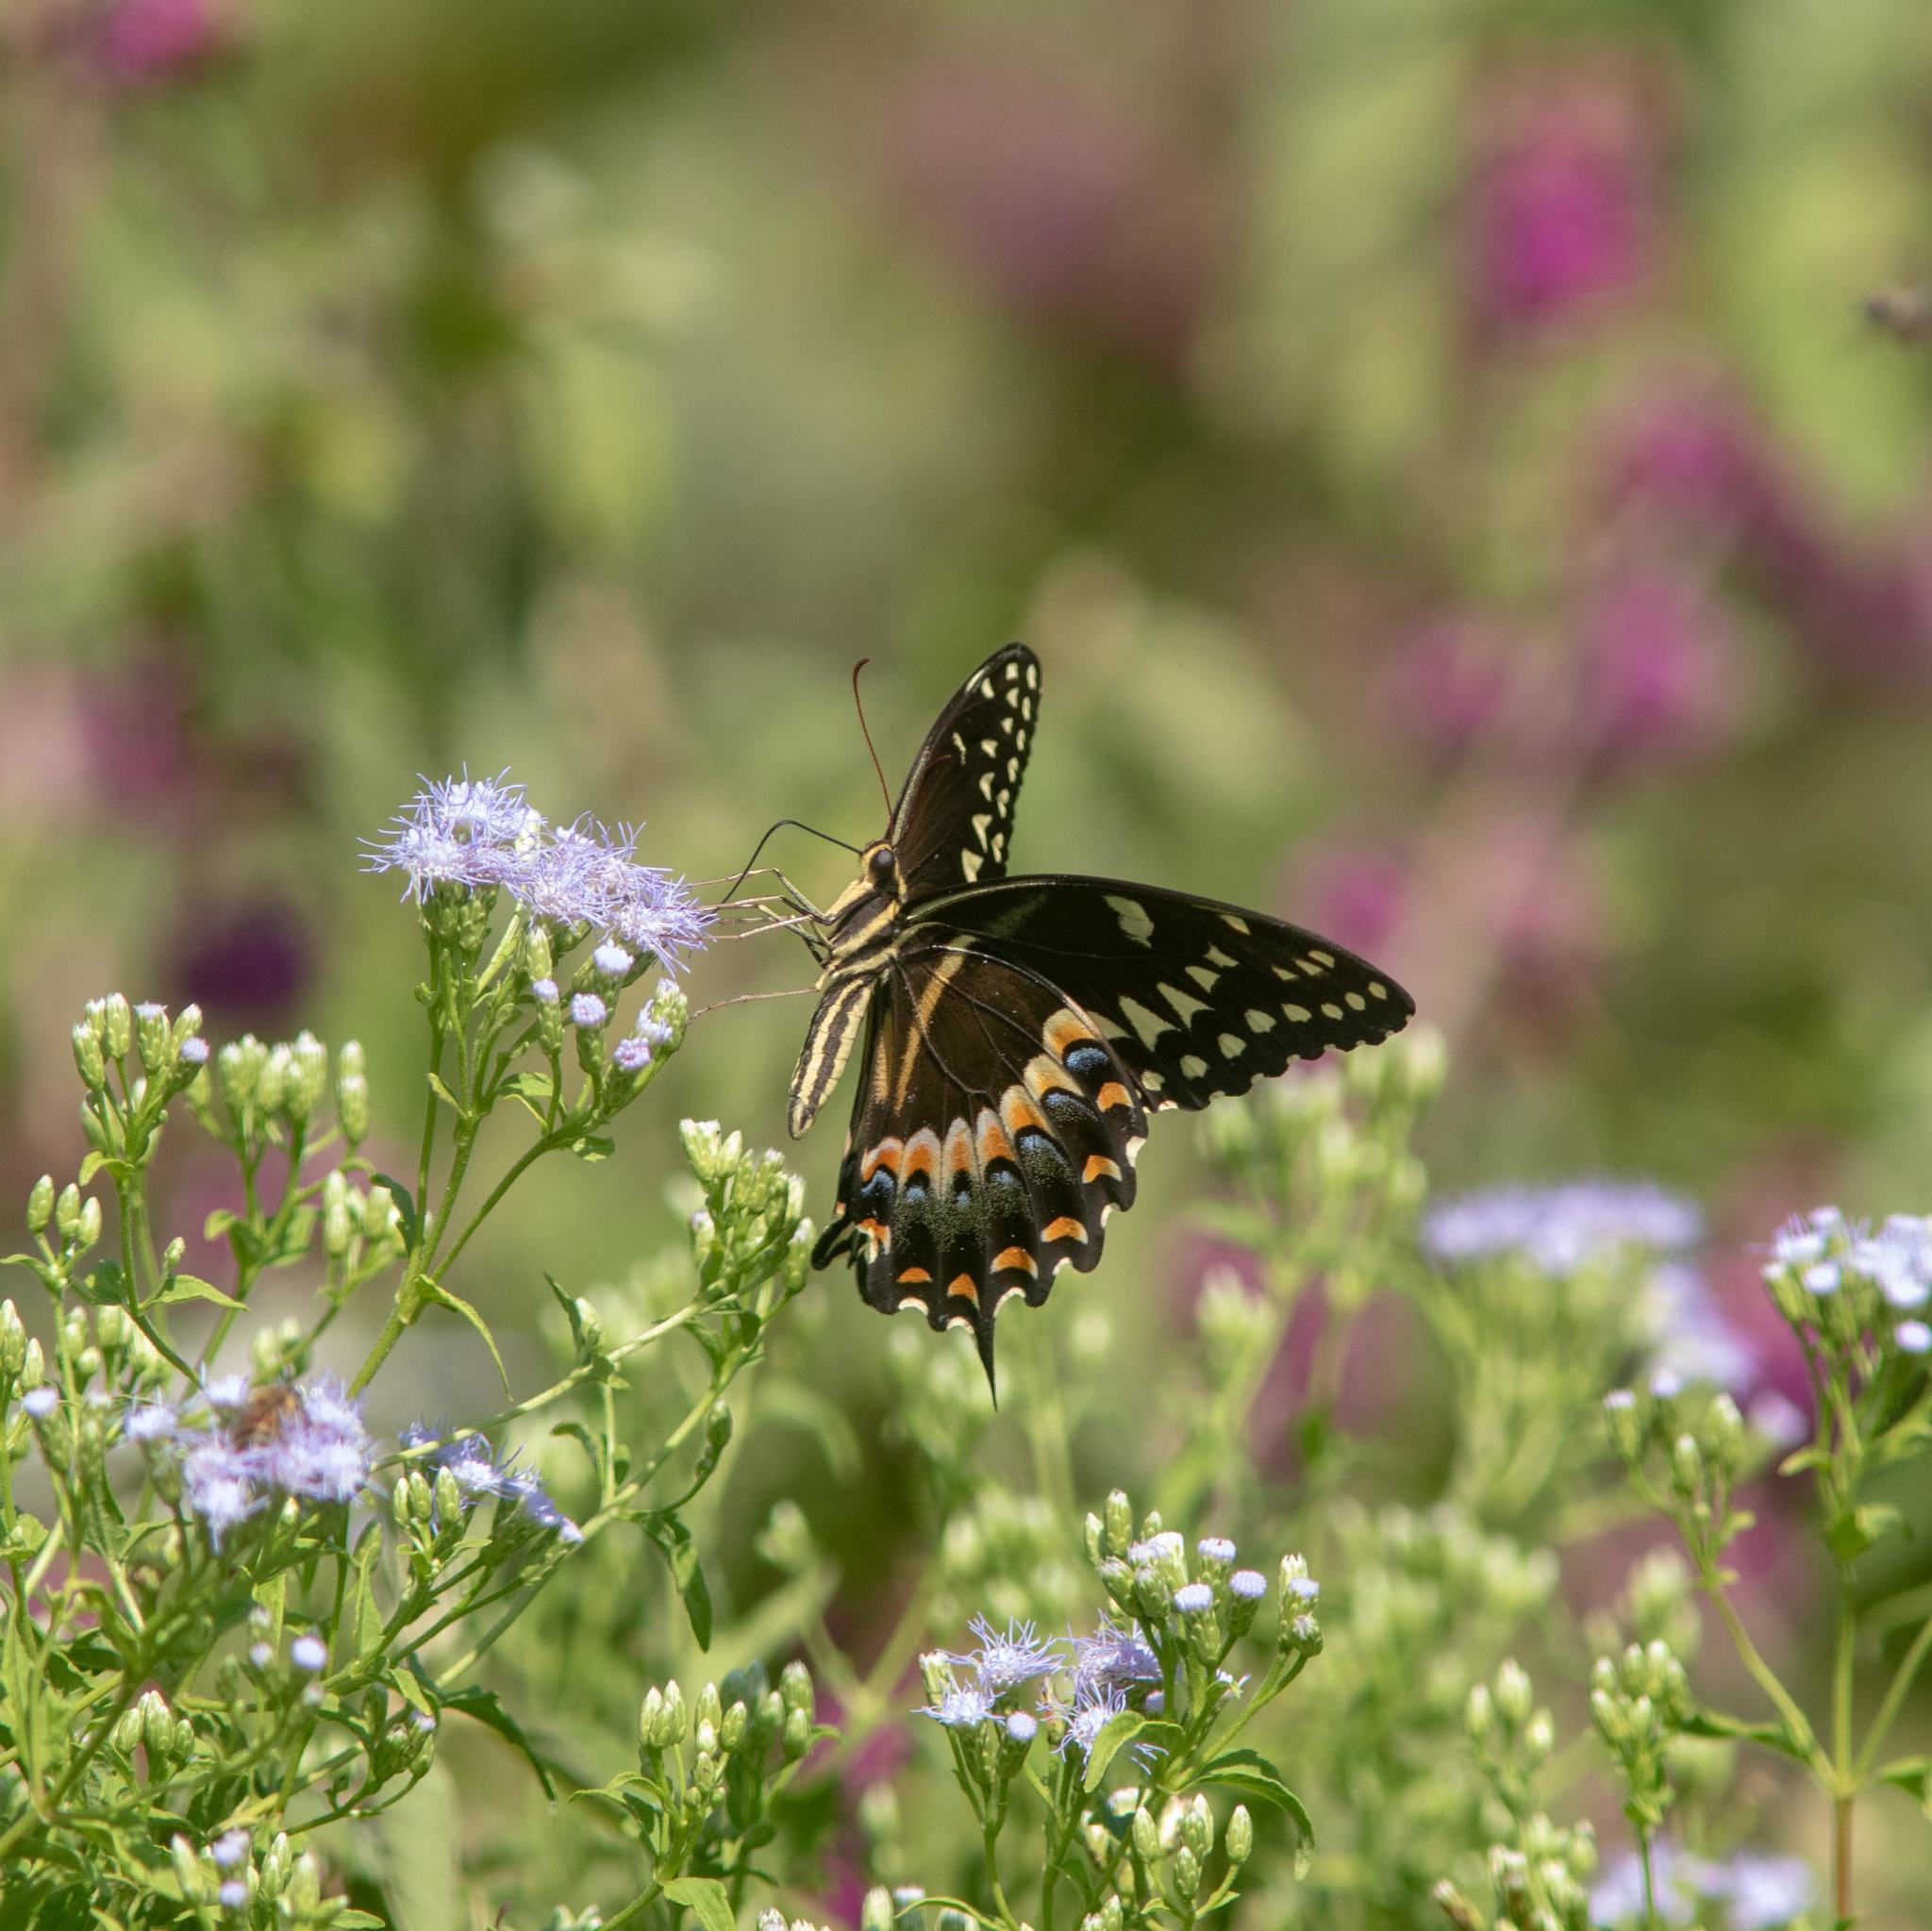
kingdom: Animalia
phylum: Arthropoda
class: Insecta
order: Lepidoptera
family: Papilionidae
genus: Papilio
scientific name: Papilio palamedes
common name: Palamedes swallowtail
